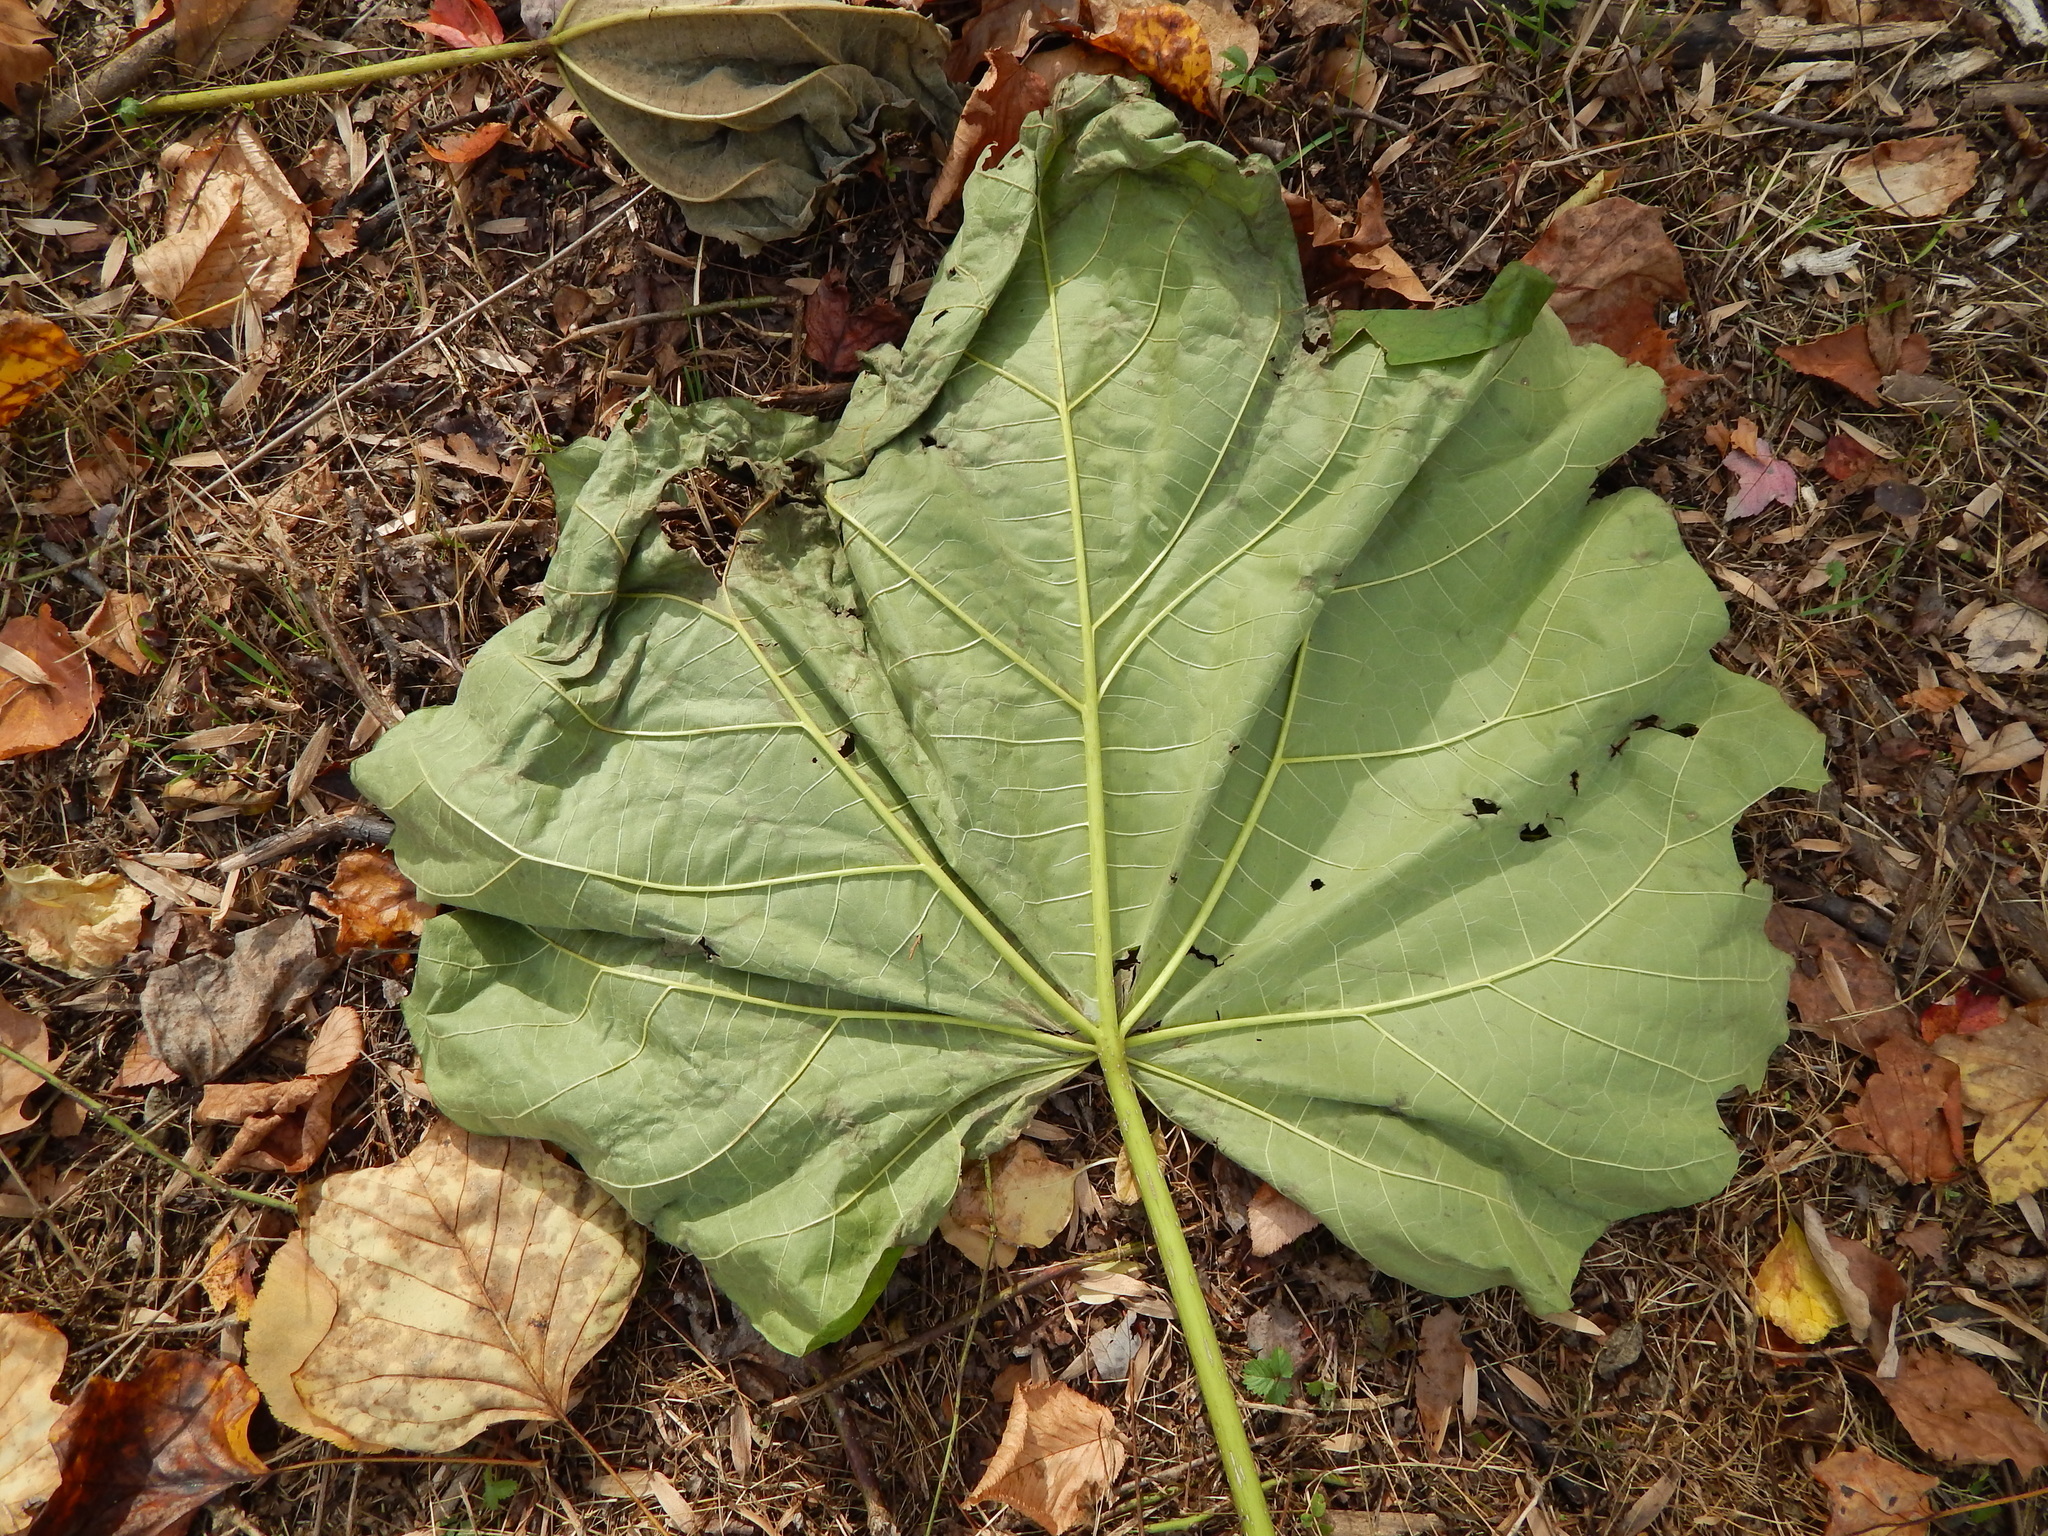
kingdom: Plantae
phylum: Tracheophyta
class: Magnoliopsida
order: Lamiales
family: Paulowniaceae
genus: Paulownia
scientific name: Paulownia tomentosa
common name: Foxglove-tree
